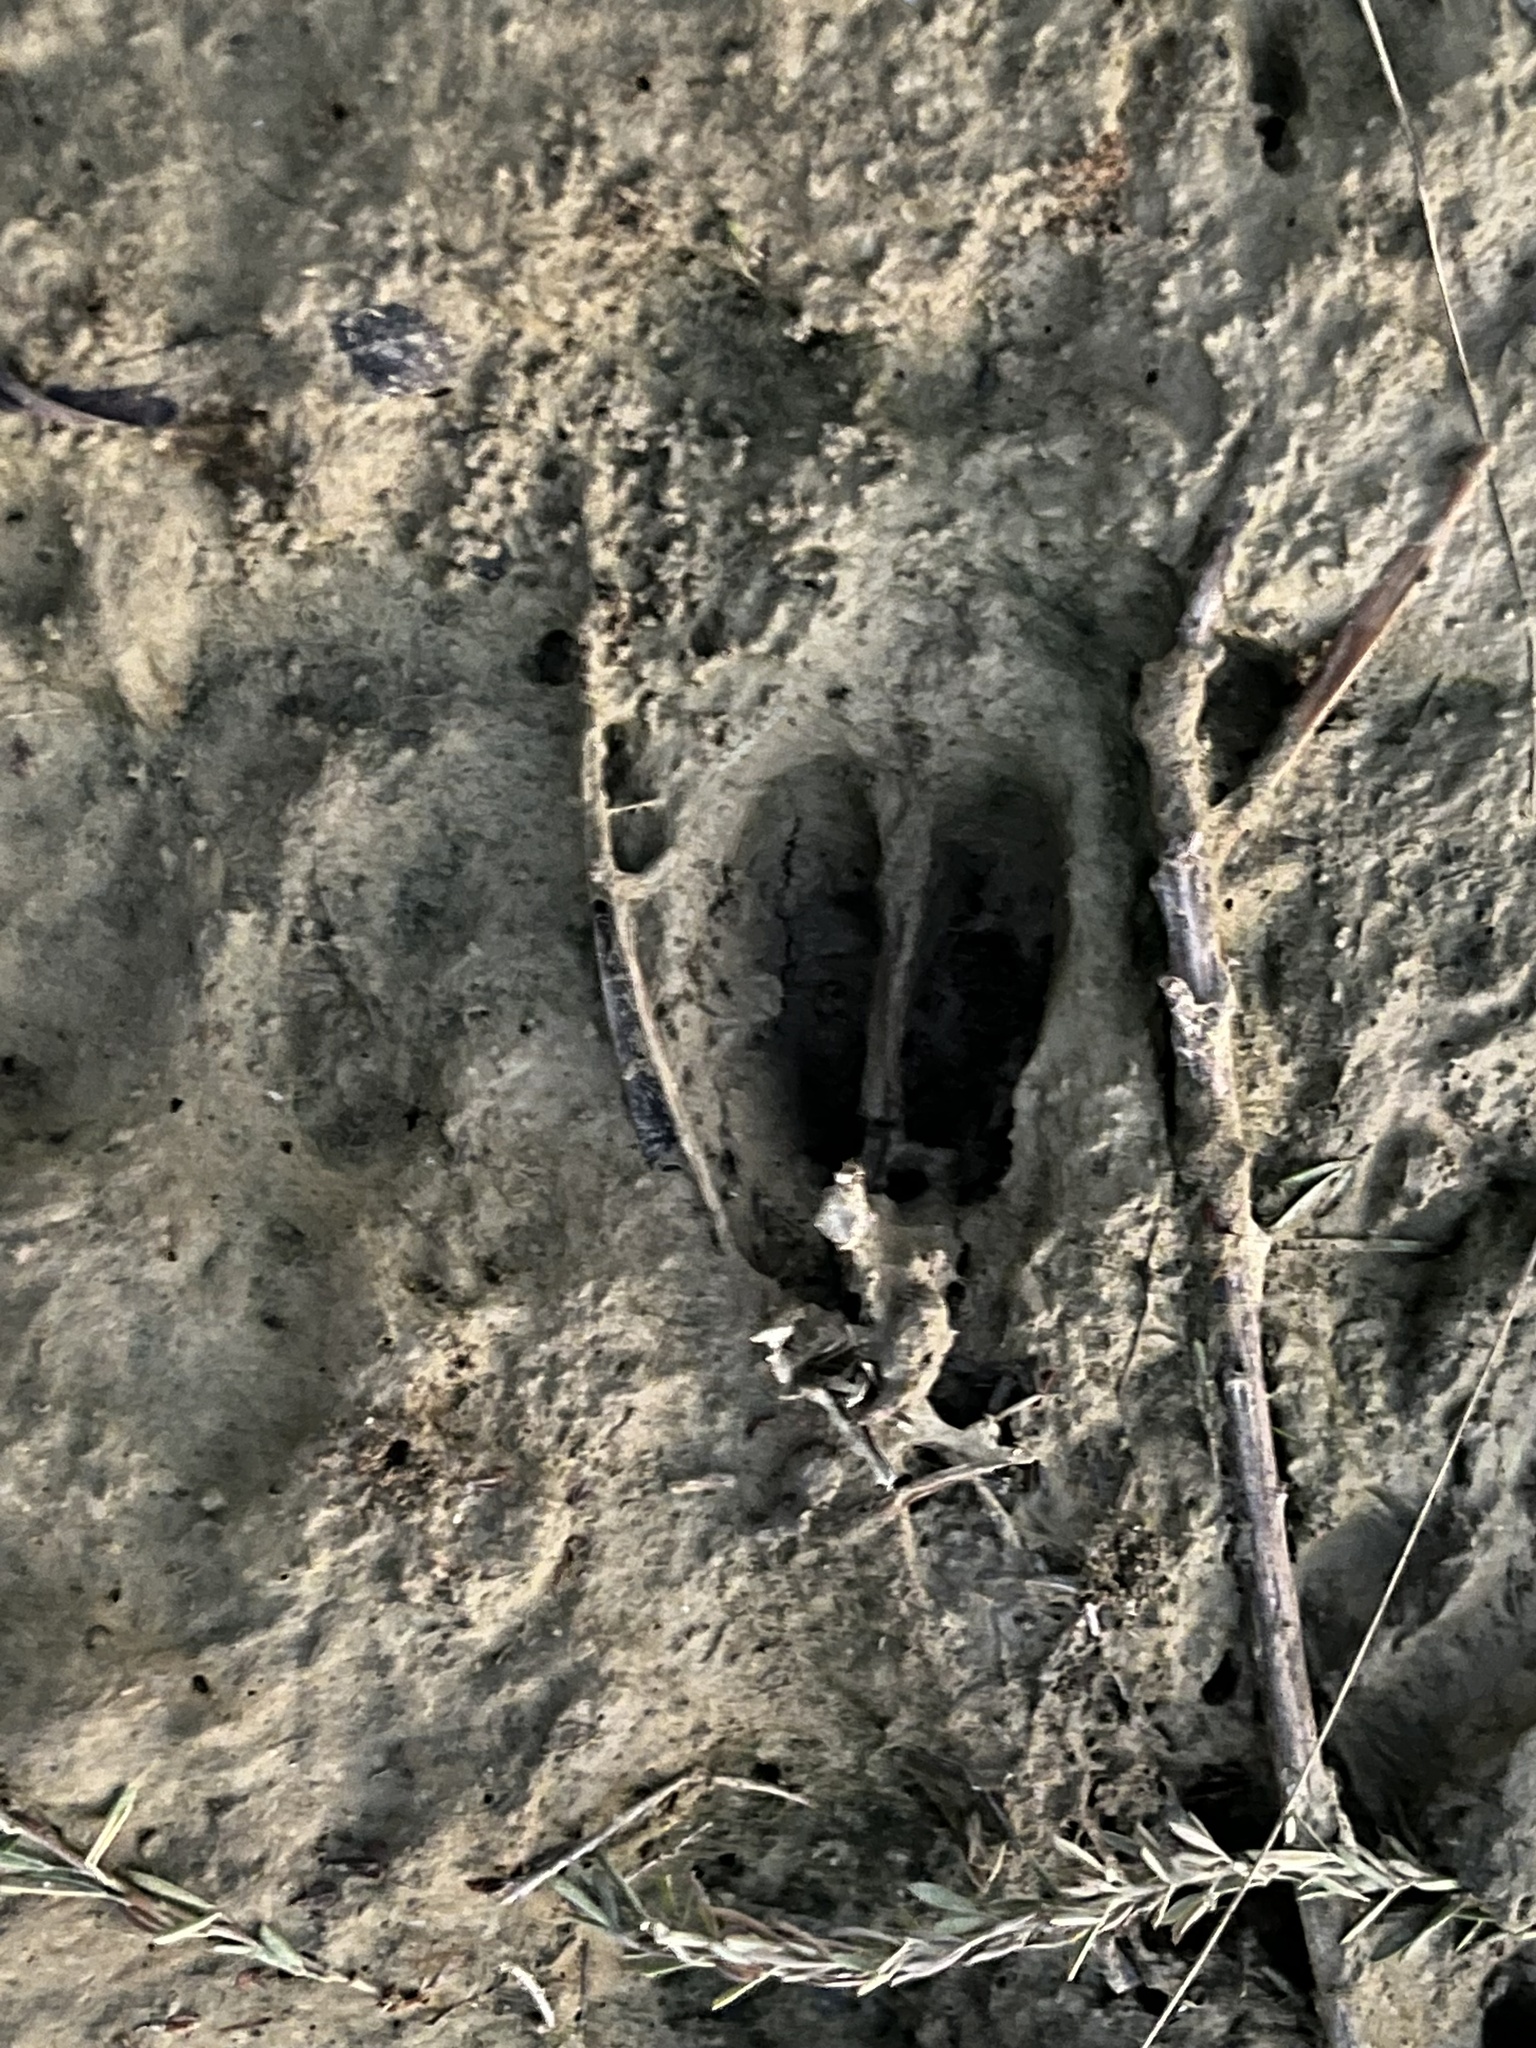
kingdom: Animalia
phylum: Chordata
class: Mammalia
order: Artiodactyla
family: Cervidae
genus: Odocoileus
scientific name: Odocoileus virginianus
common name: White-tailed deer
